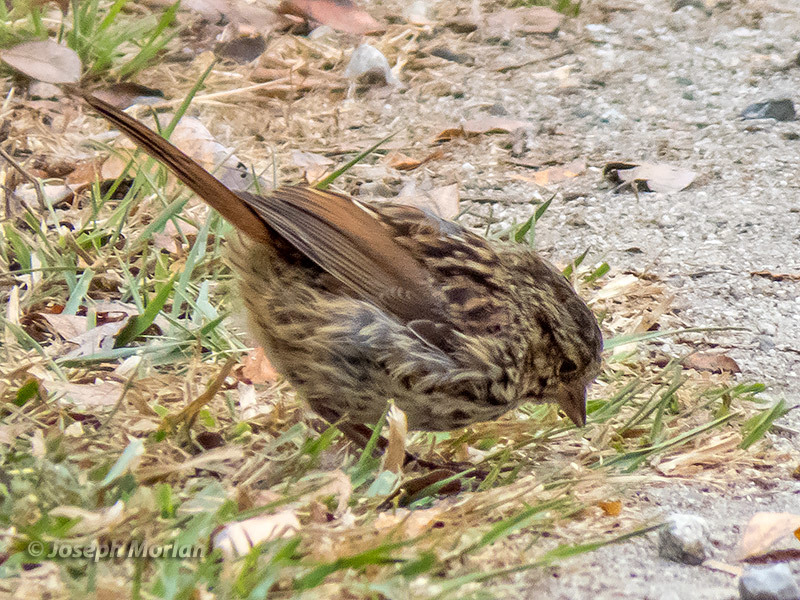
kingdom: Animalia
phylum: Chordata
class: Aves
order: Passeriformes
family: Passerellidae
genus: Melospiza
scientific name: Melospiza melodia
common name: Song sparrow
